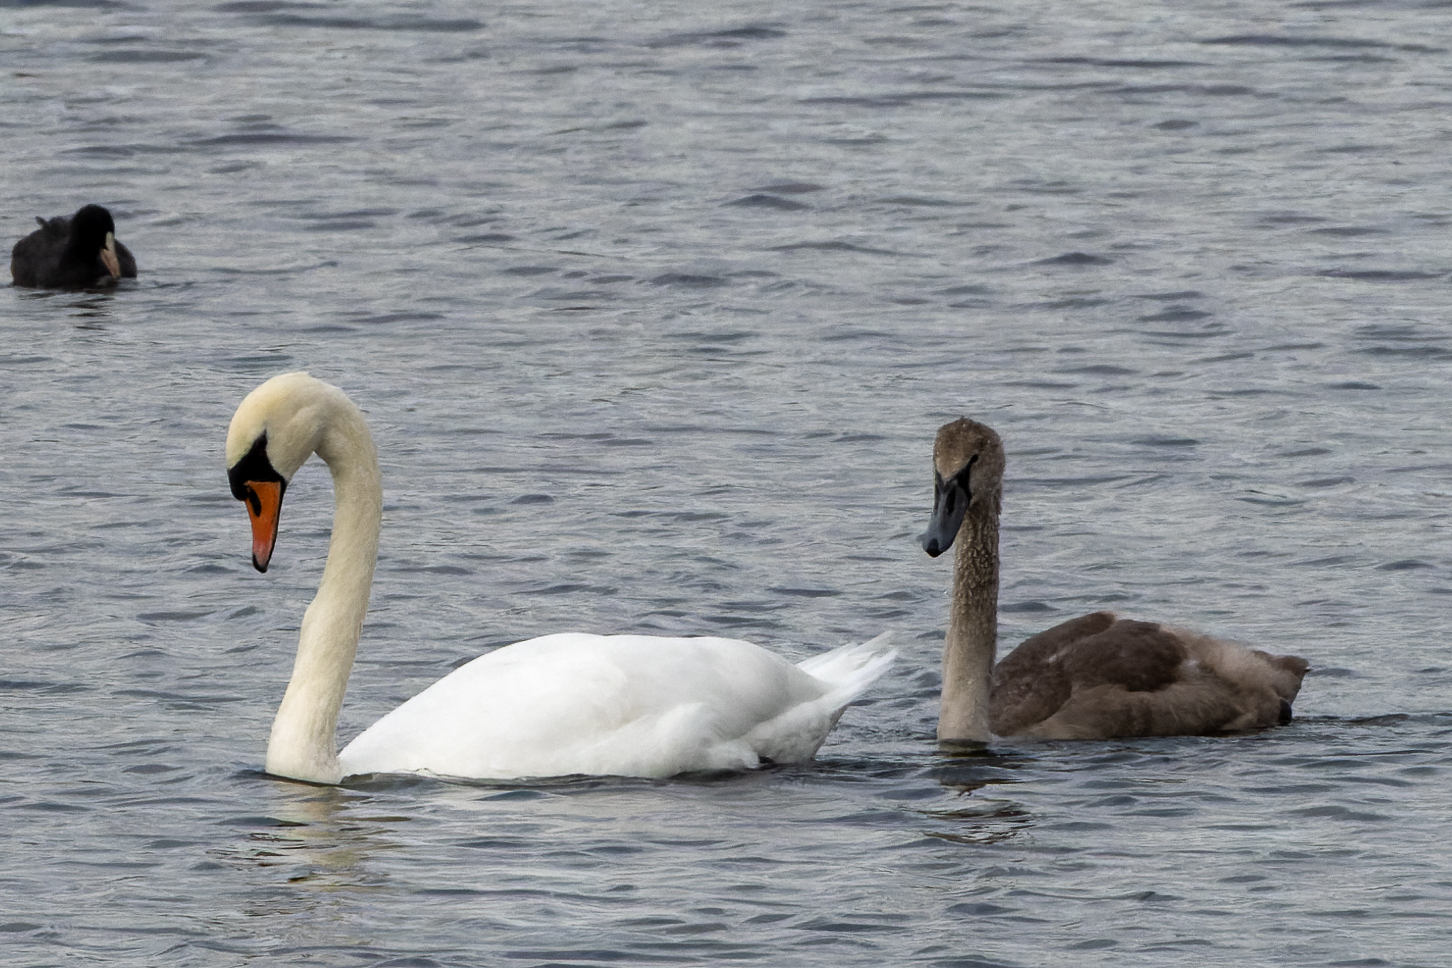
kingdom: Animalia
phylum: Chordata
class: Aves
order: Anseriformes
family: Anatidae
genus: Cygnus
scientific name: Cygnus olor
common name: Mute swan
